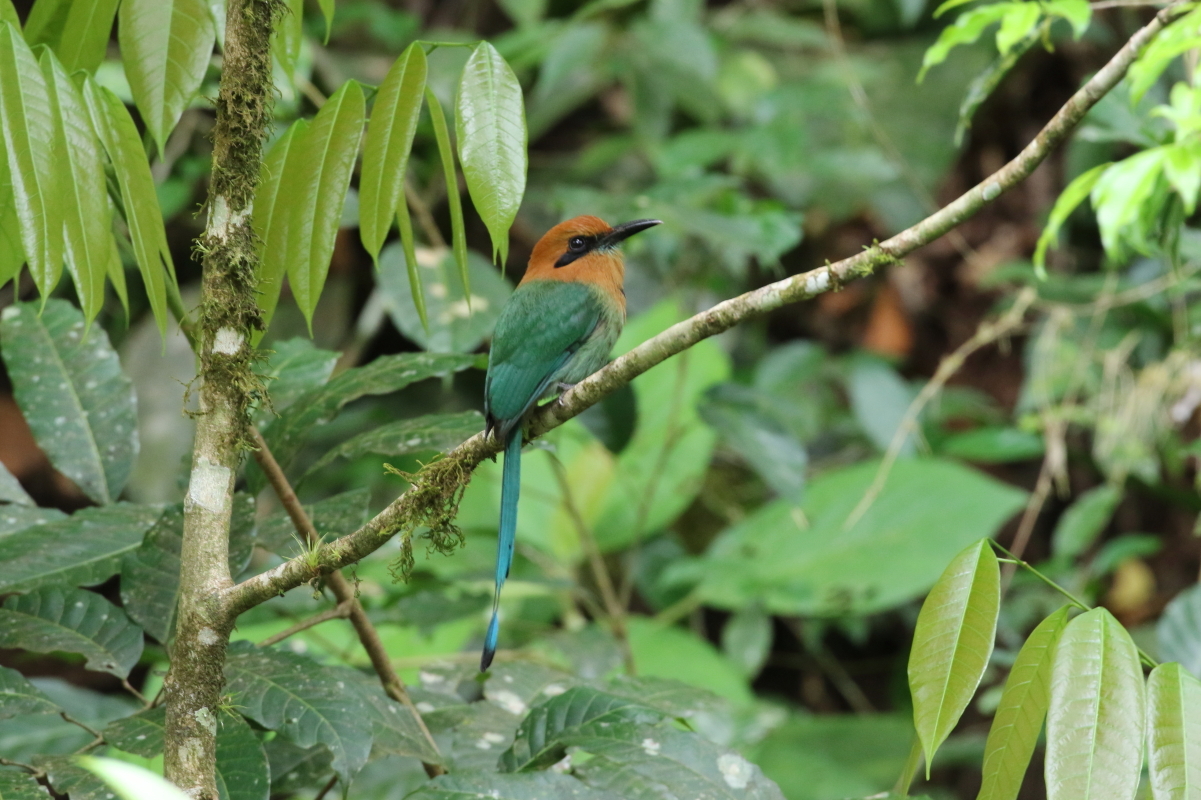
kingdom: Animalia
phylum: Chordata
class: Aves
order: Coraciiformes
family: Momotidae
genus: Electron
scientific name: Electron platyrhynchum
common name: Broad-billed motmot
